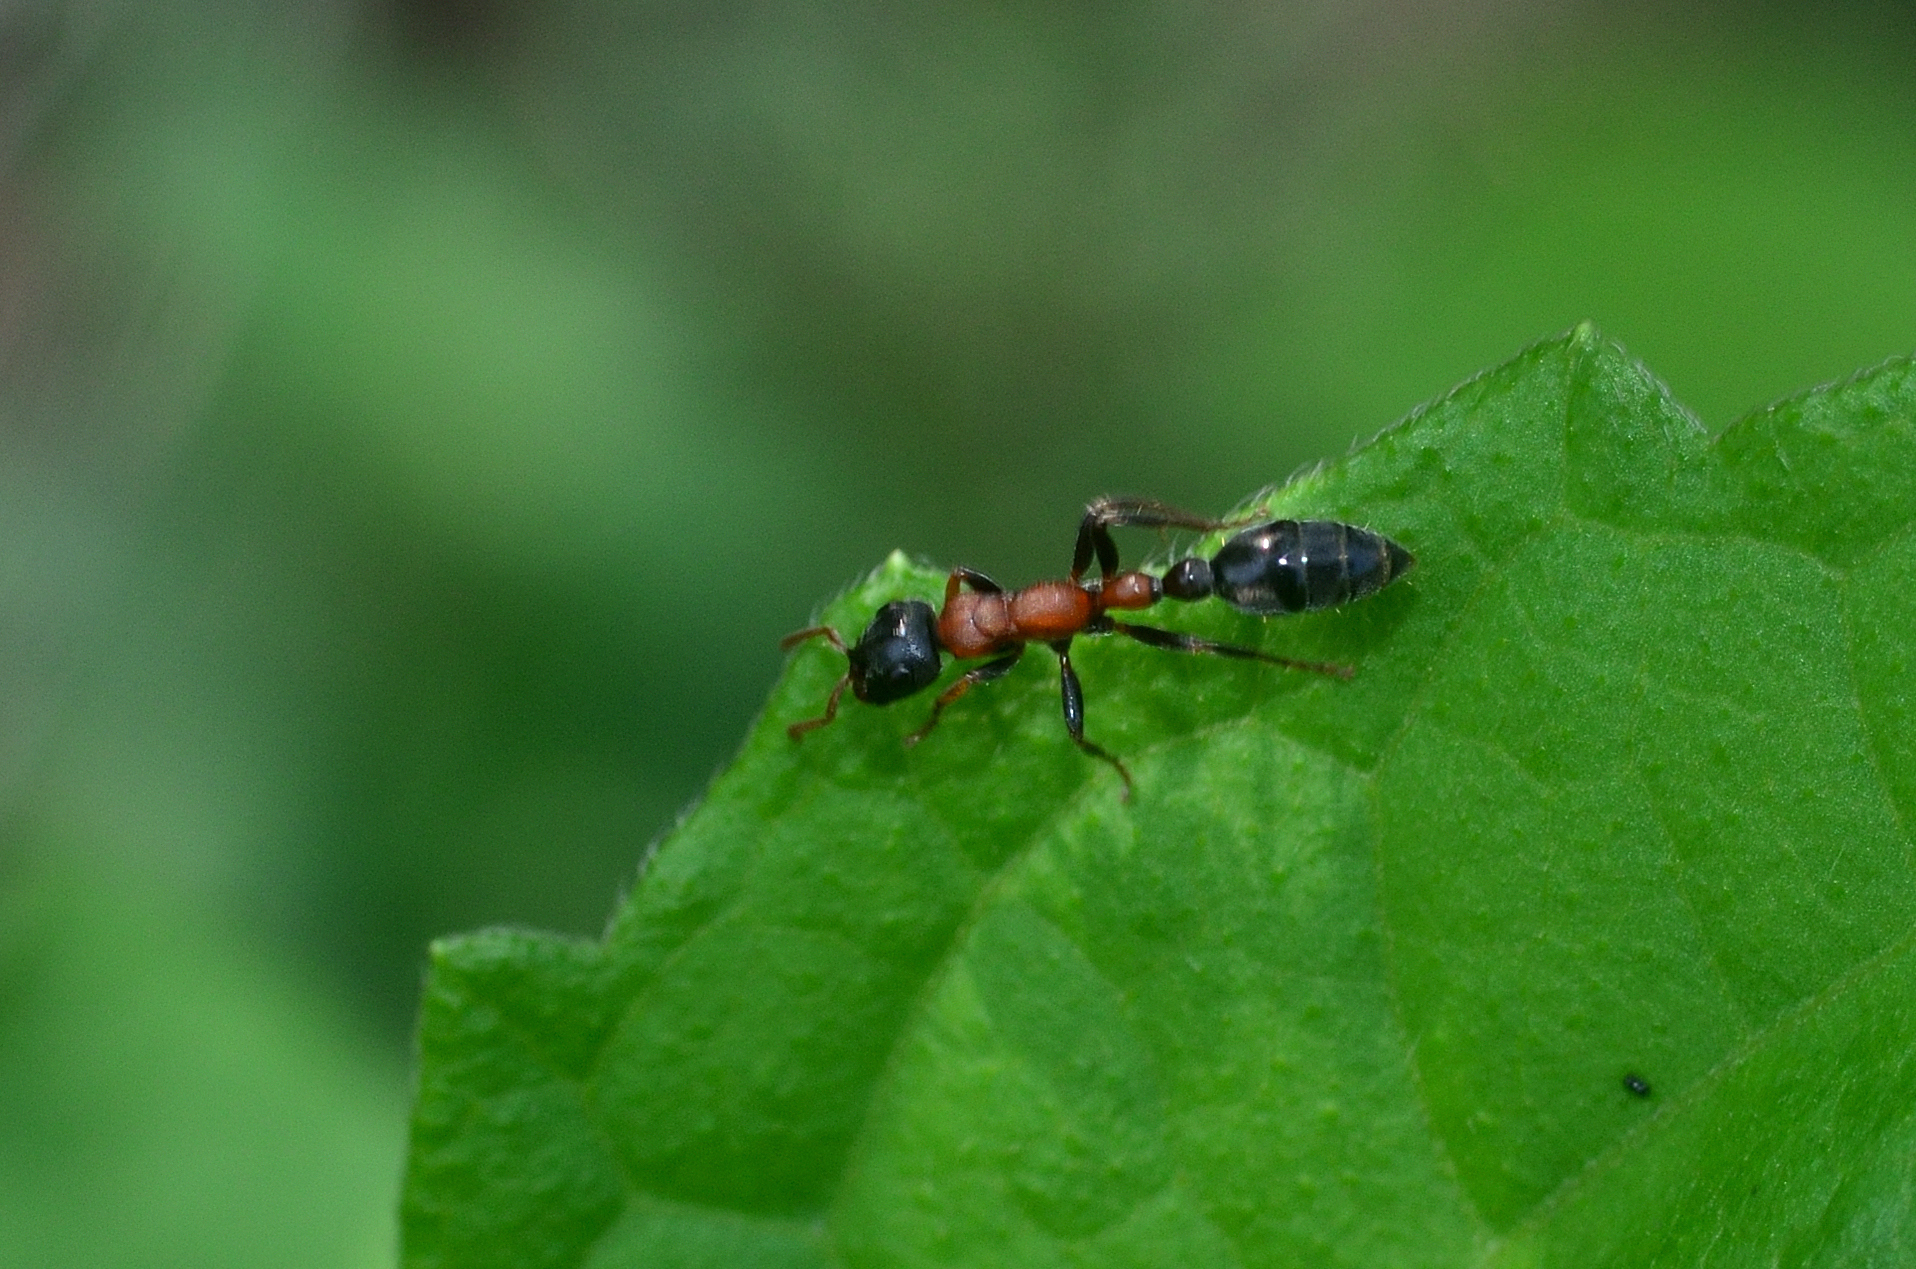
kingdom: Animalia
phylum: Arthropoda
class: Insecta
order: Hymenoptera
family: Formicidae
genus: Tetraponera
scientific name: Tetraponera rufonigra
